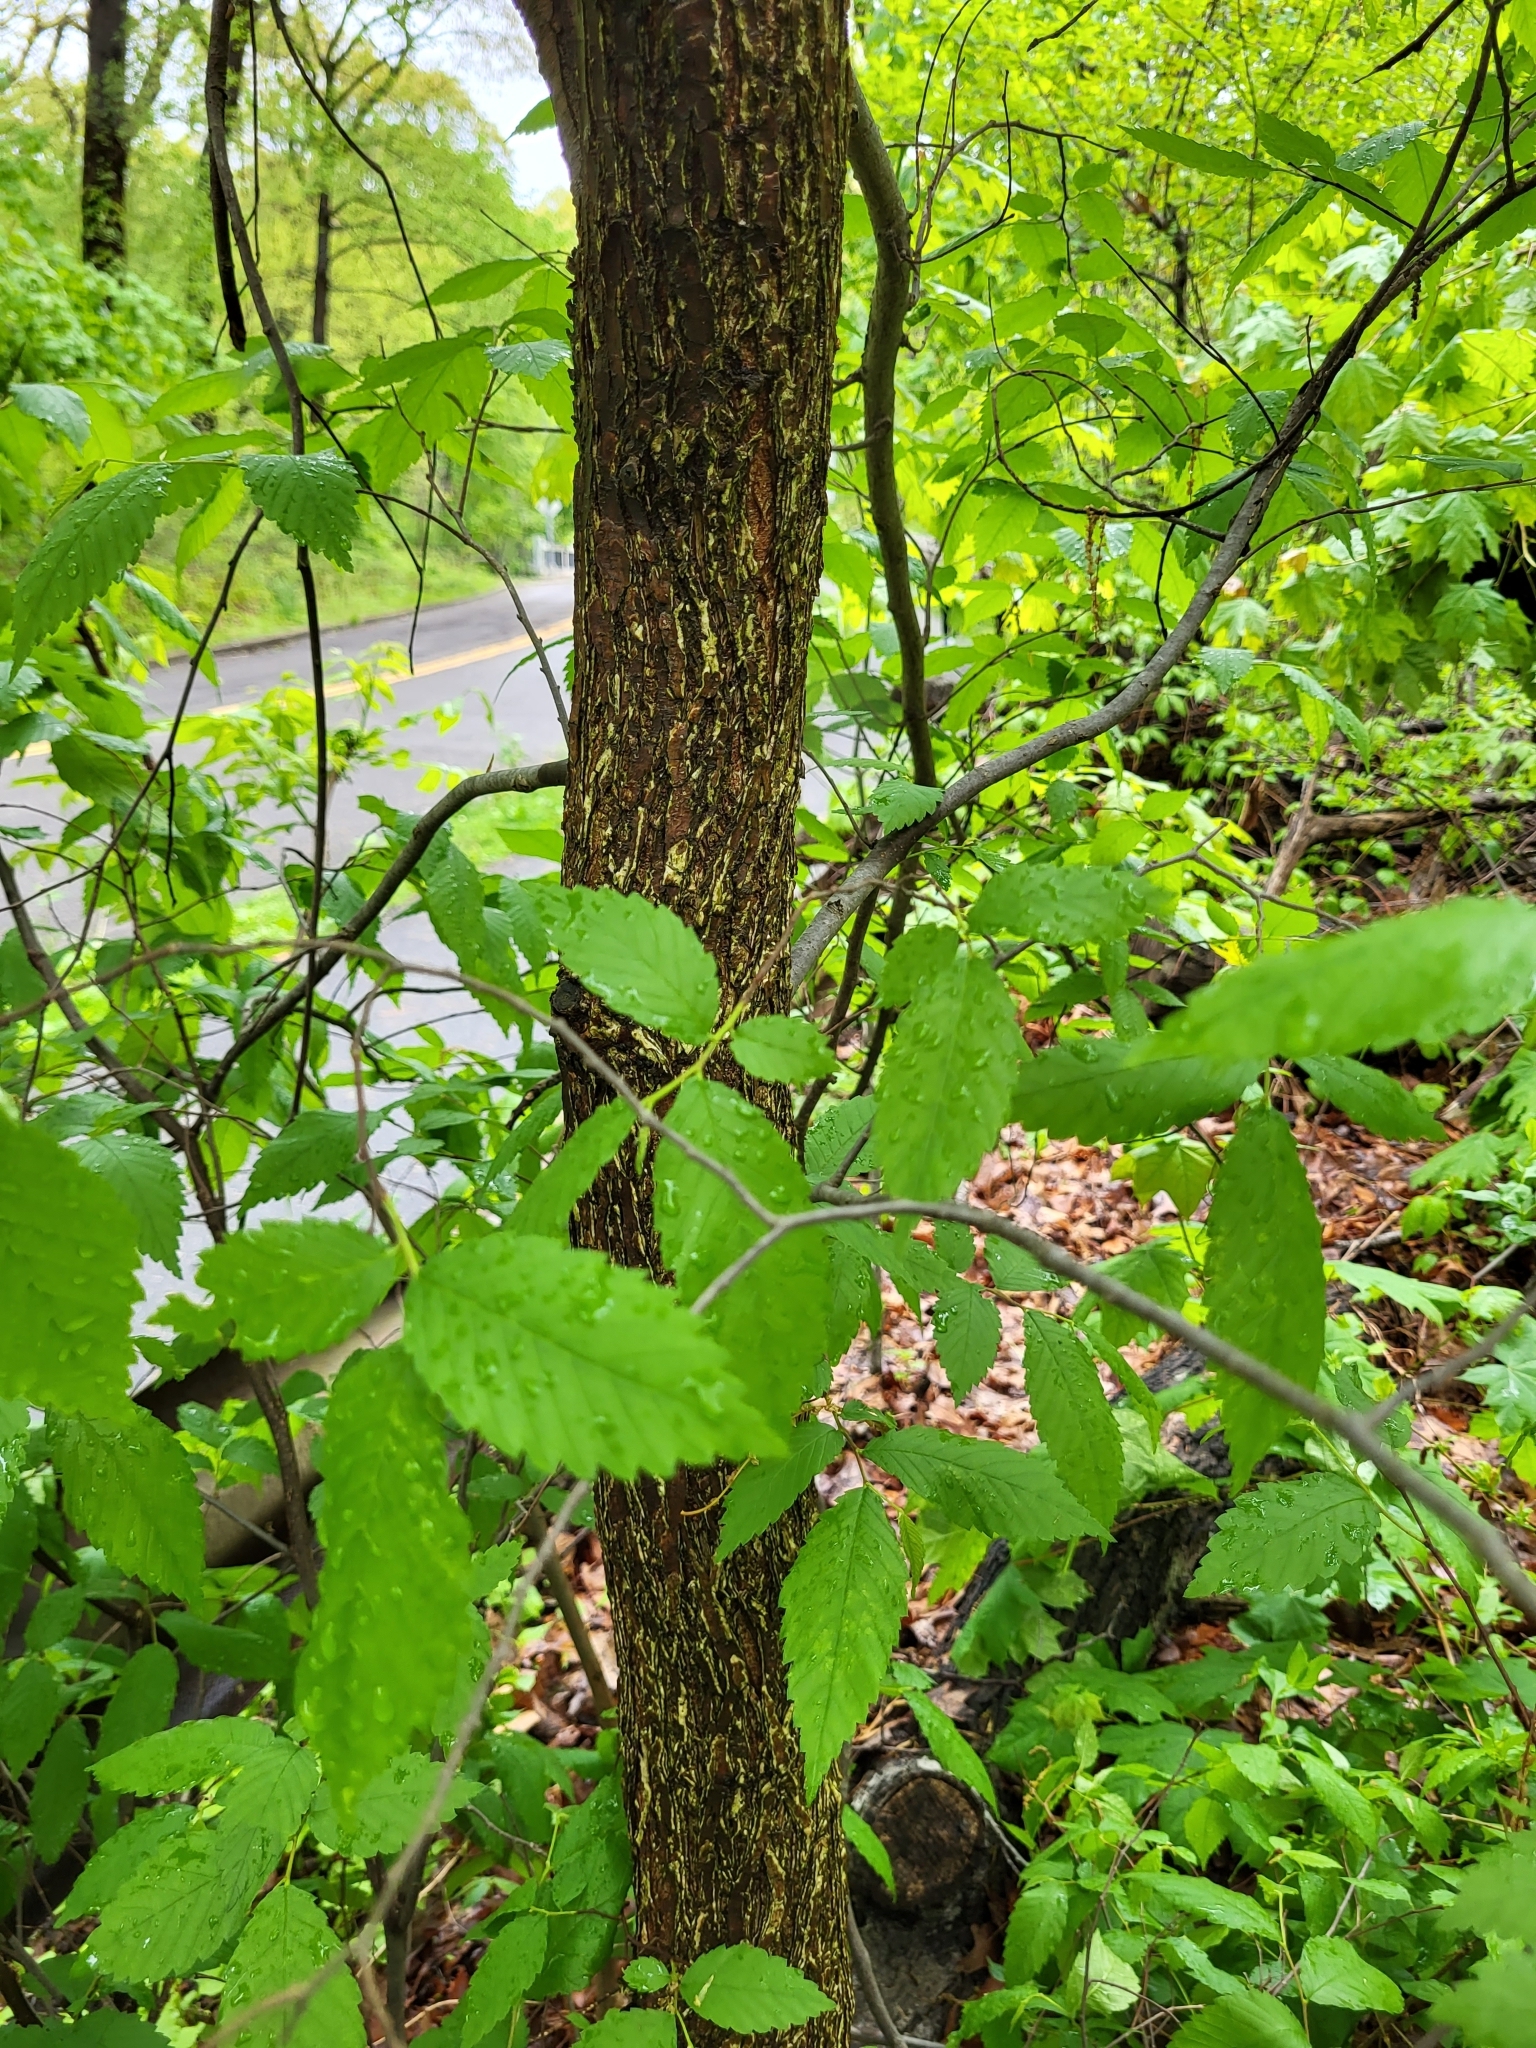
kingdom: Plantae
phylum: Tracheophyta
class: Magnoliopsida
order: Rosales
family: Ulmaceae
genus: Ulmus
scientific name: Ulmus americana
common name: American elm
